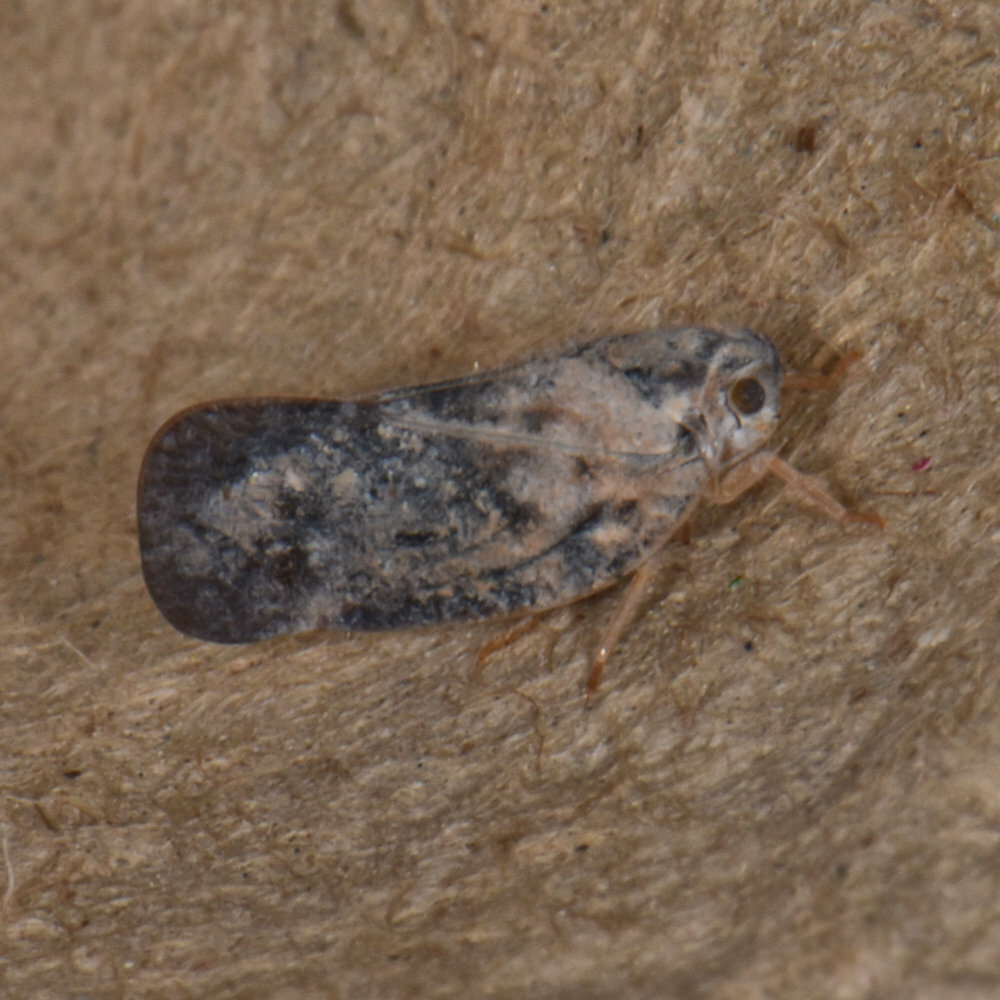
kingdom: Animalia
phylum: Arthropoda
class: Insecta
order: Hemiptera
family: Flatidae
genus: Metcalfa
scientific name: Metcalfa pruinosa
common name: Citrus flatid planthopper
